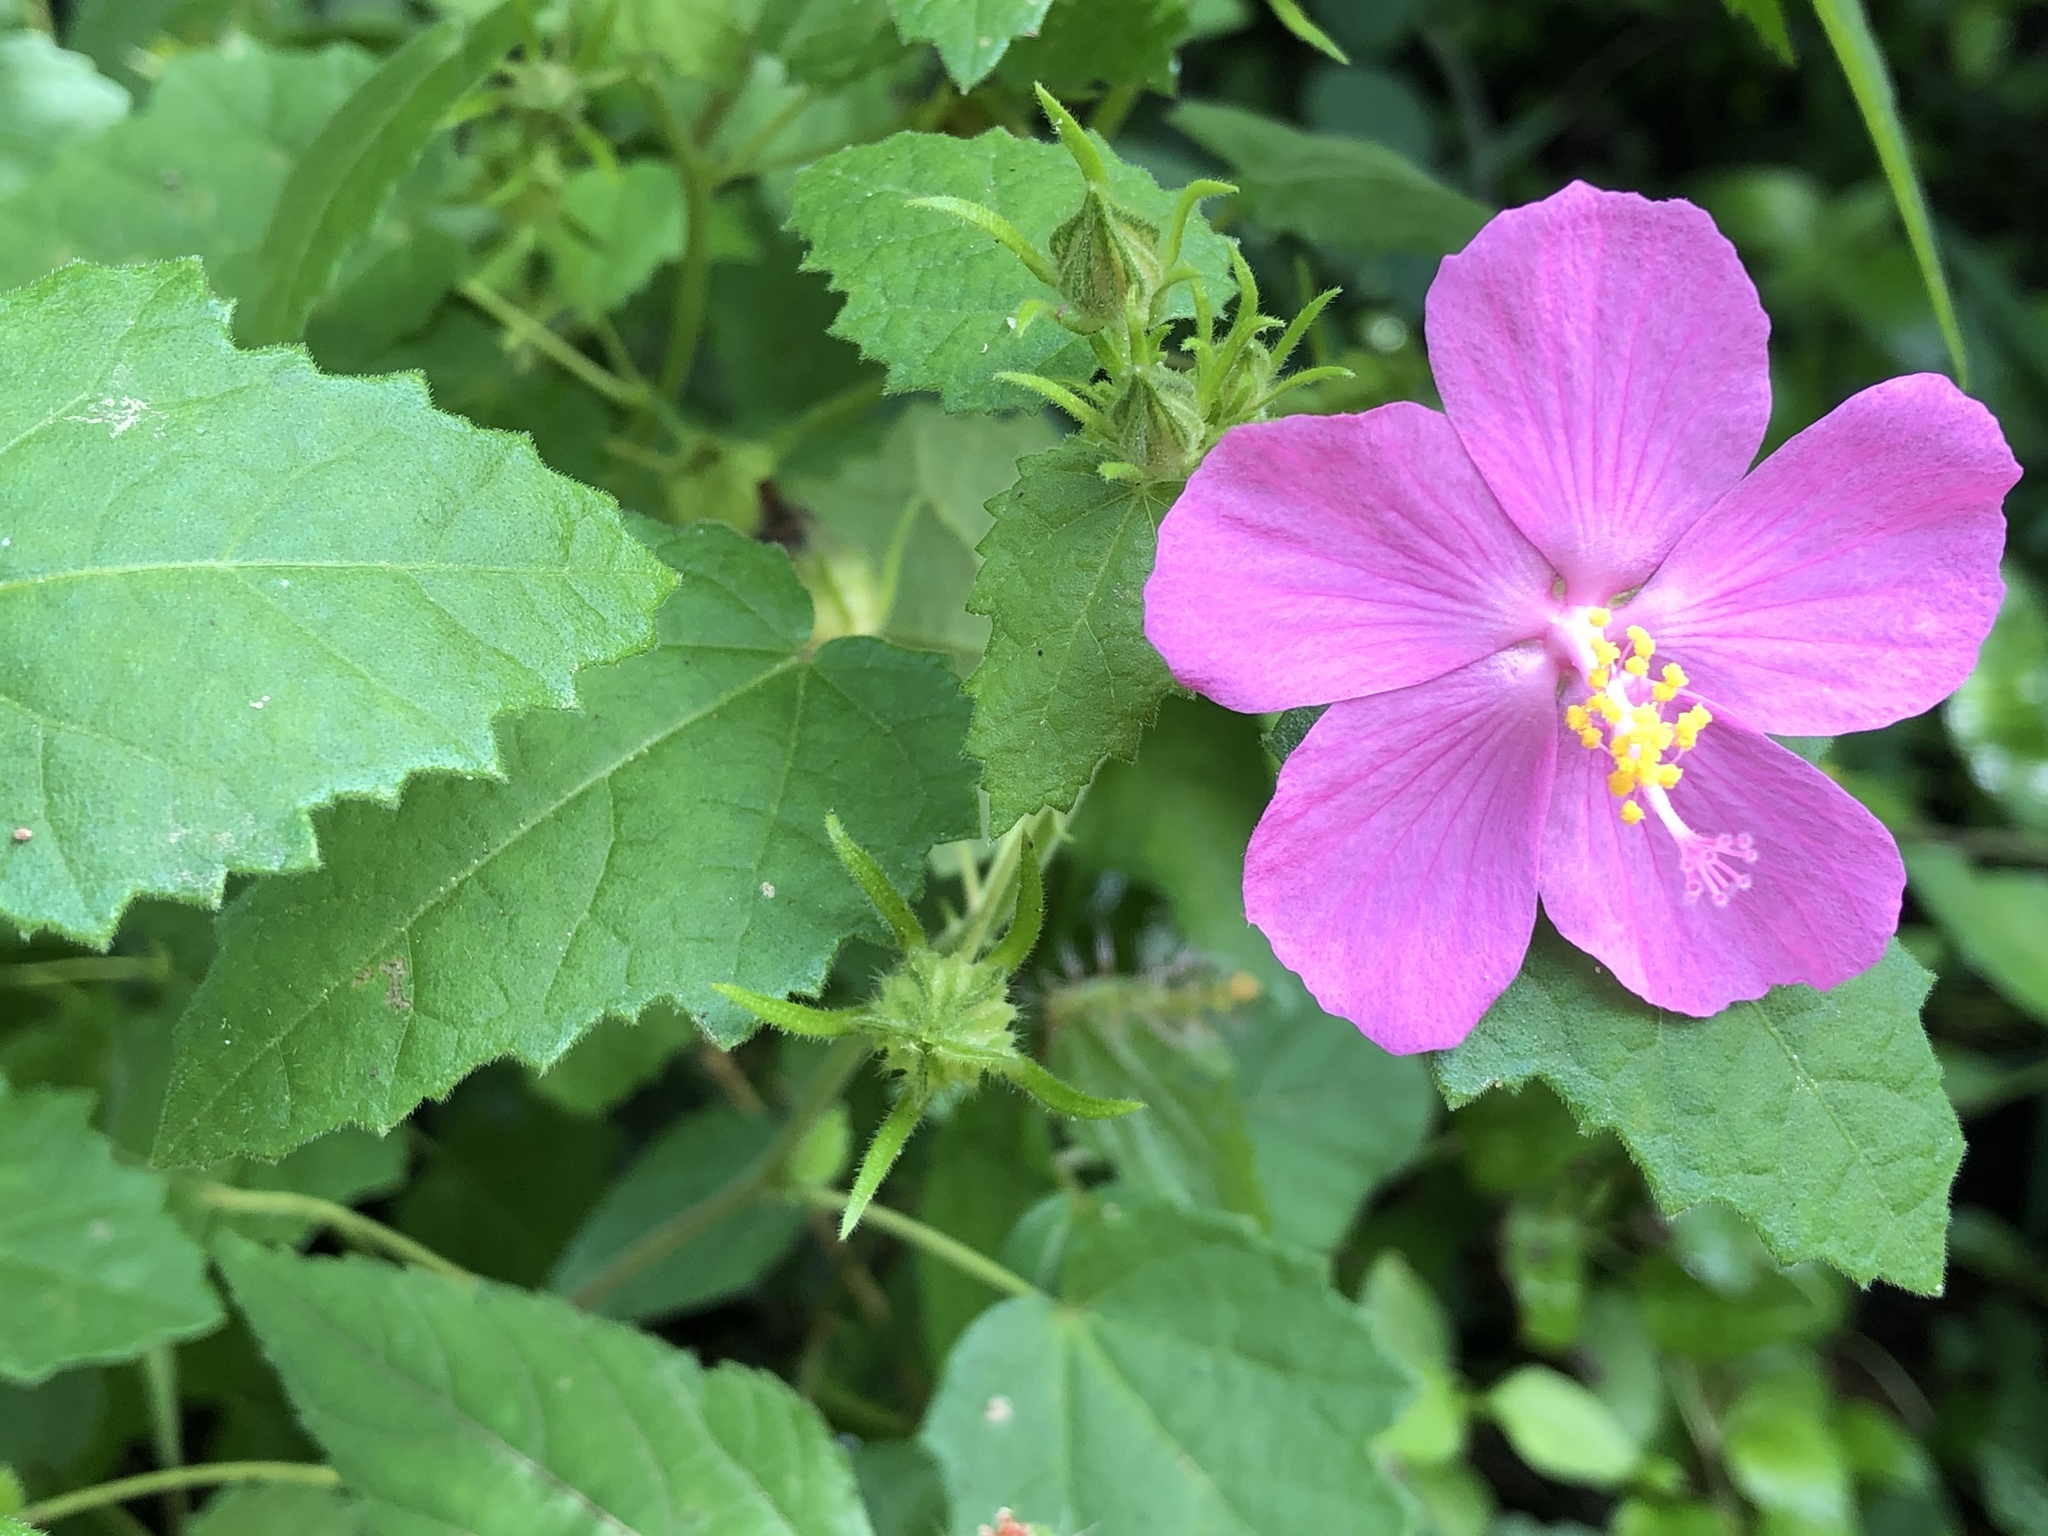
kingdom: Plantae
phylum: Tracheophyta
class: Magnoliopsida
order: Malvales
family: Malvaceae
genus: Pavonia
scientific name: Pavonia lasiopetala
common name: Texas swamp-mallow
